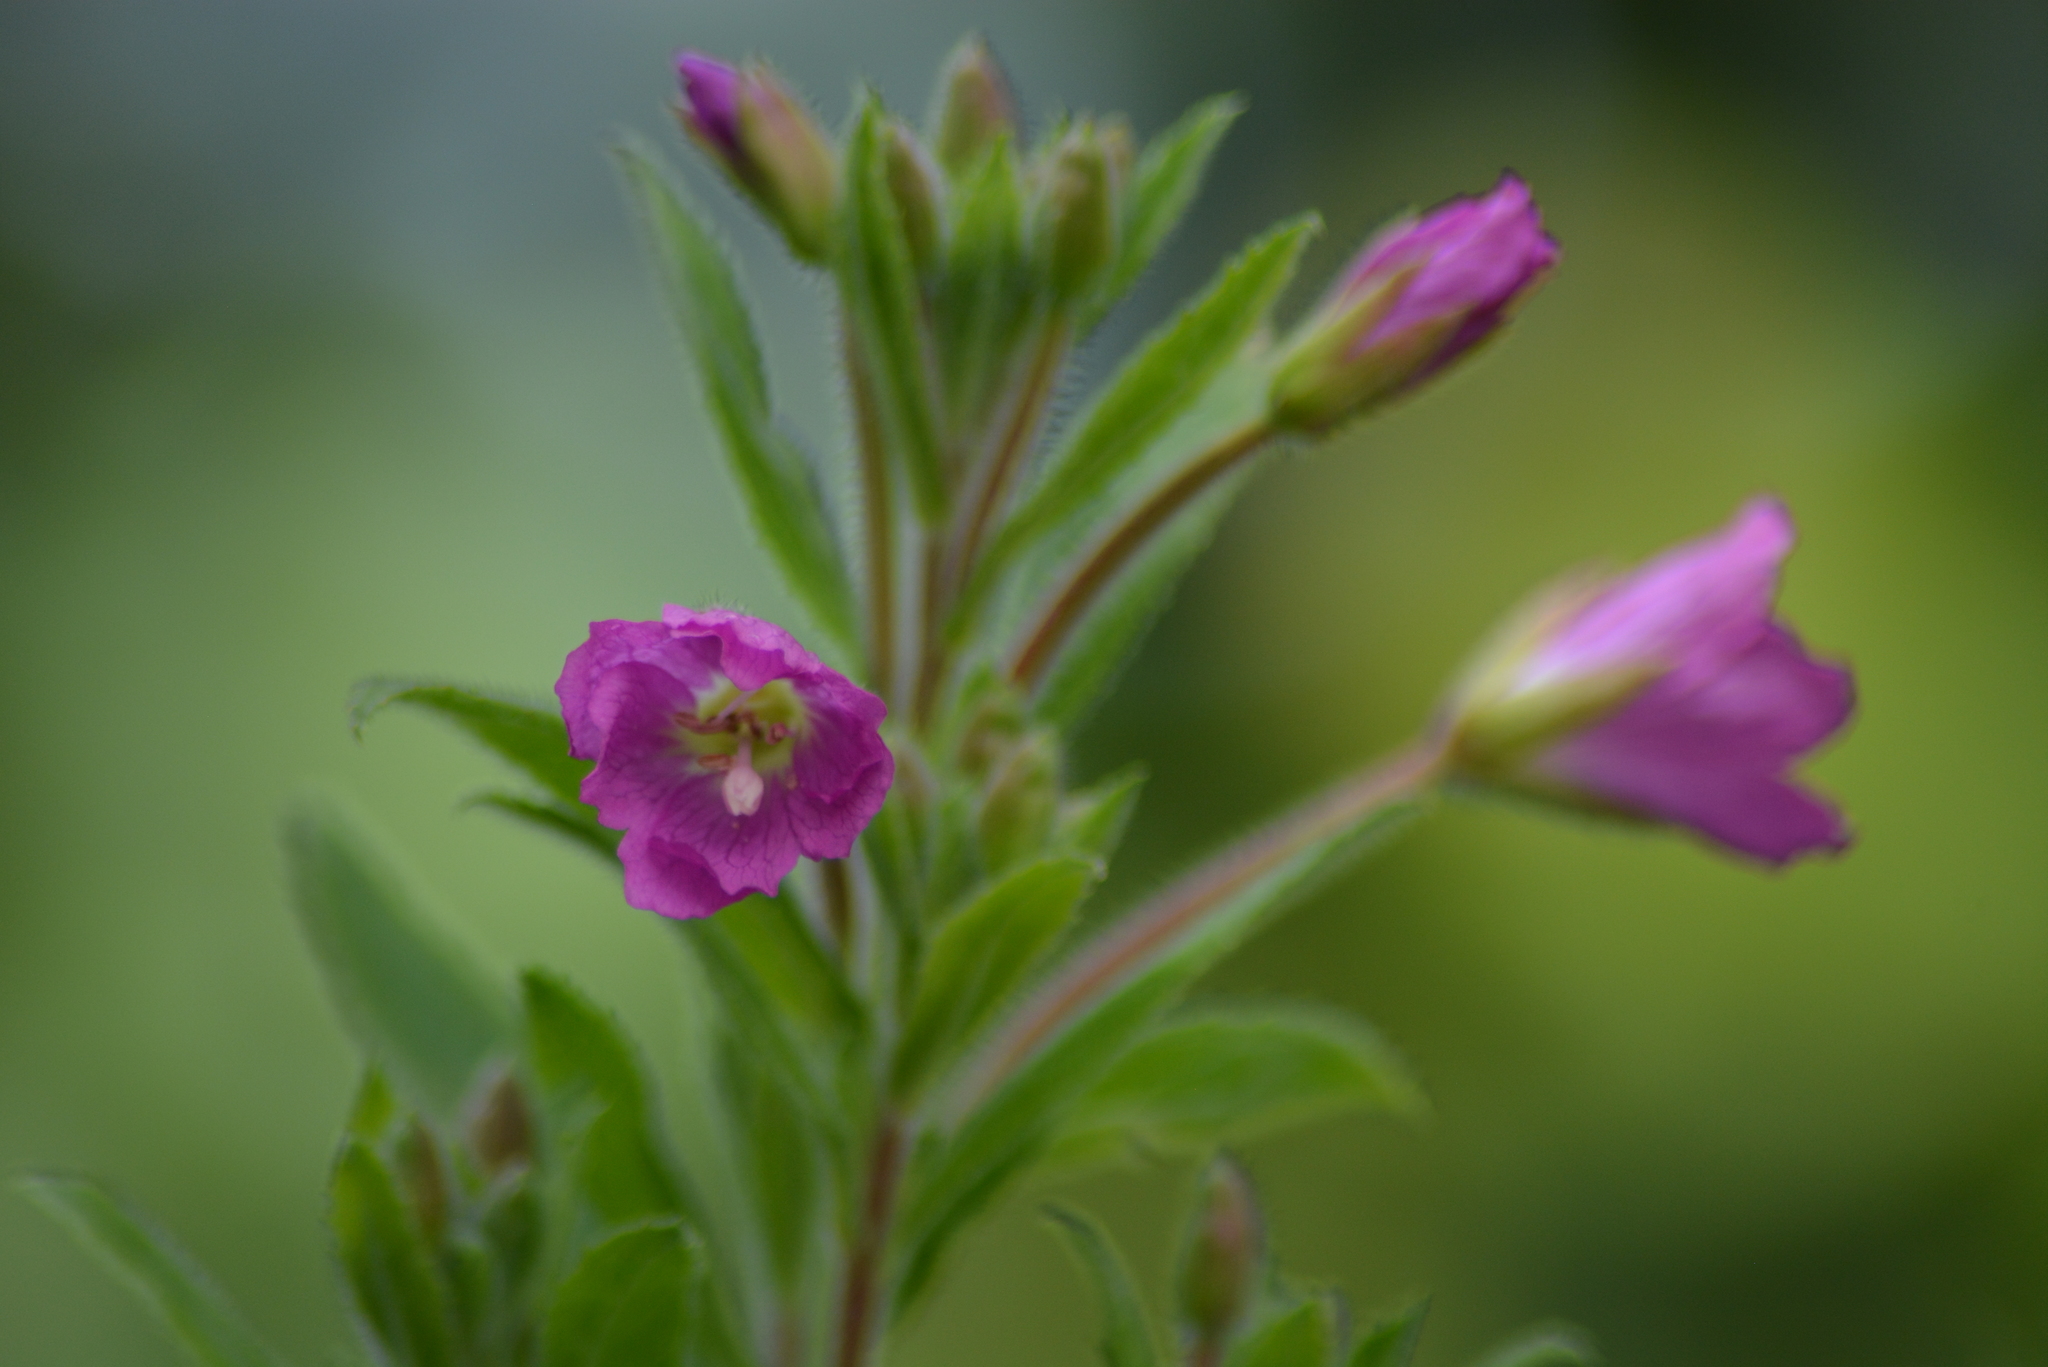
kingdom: Plantae
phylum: Tracheophyta
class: Magnoliopsida
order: Myrtales
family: Onagraceae
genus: Epilobium
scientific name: Epilobium hirsutum
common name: Great willowherb
